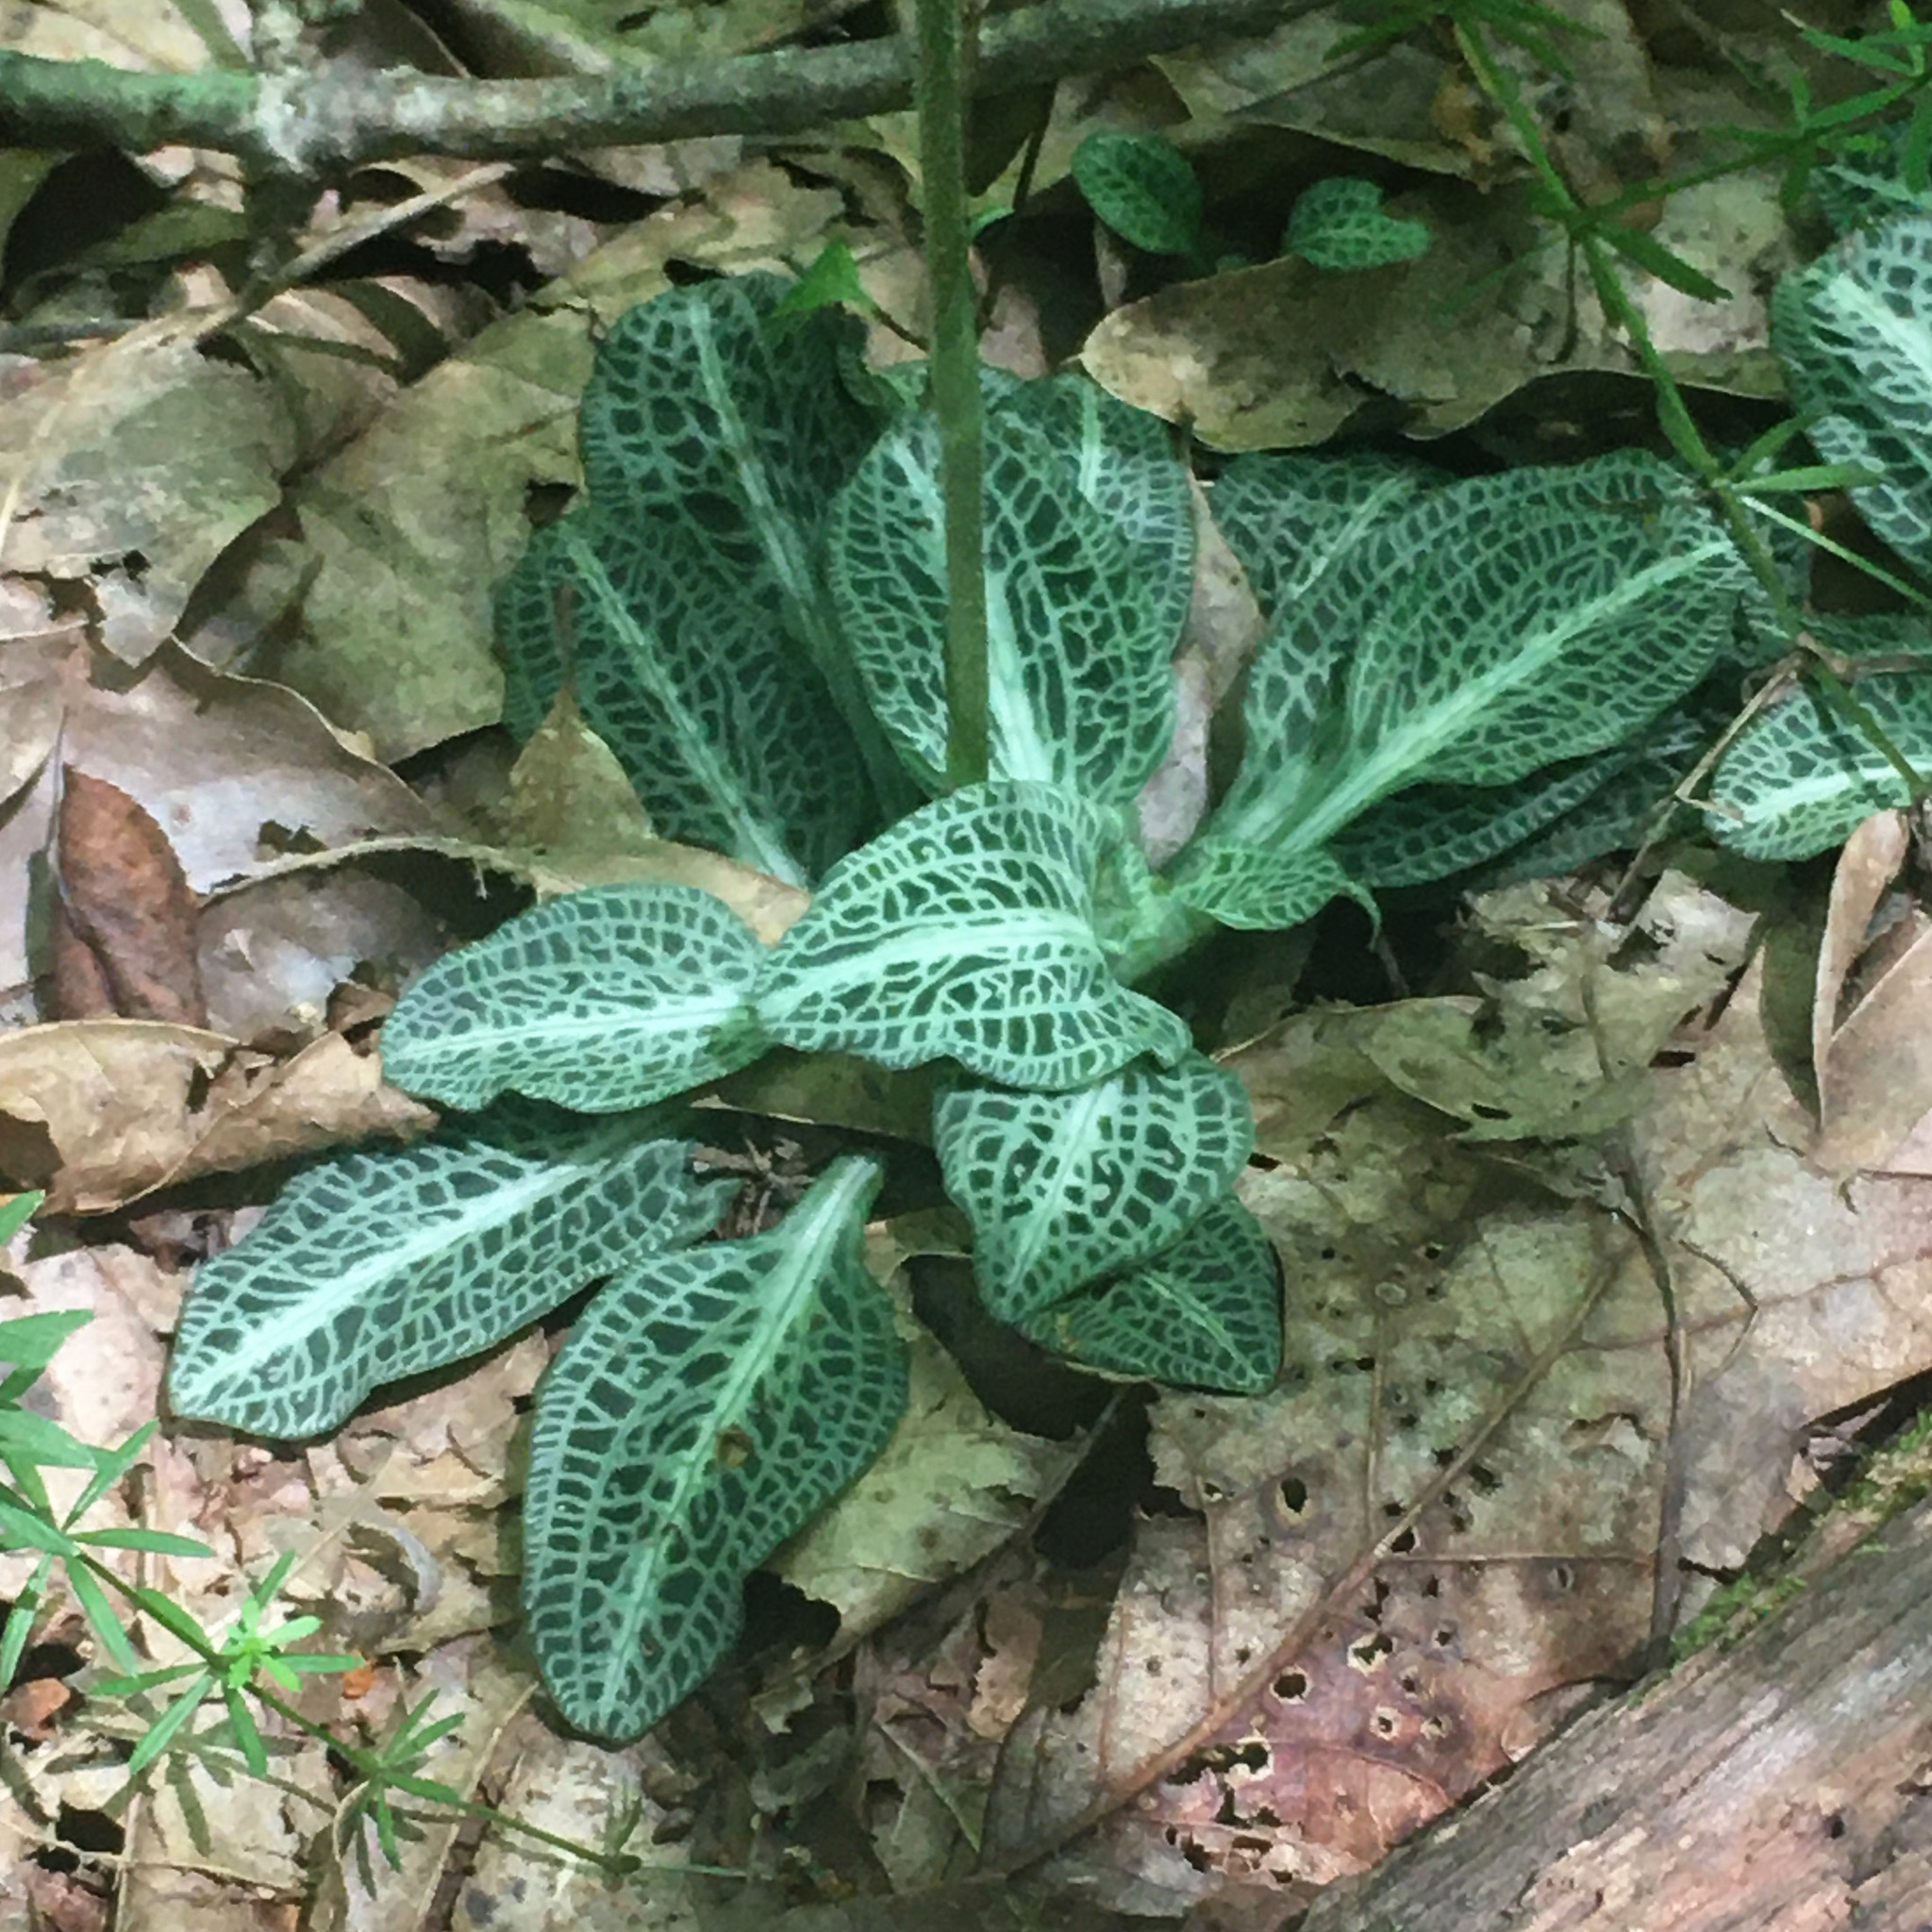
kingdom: Plantae
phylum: Tracheophyta
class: Liliopsida
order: Asparagales
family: Orchidaceae
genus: Goodyera
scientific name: Goodyera pubescens
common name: Downy rattlesnake-plantain
